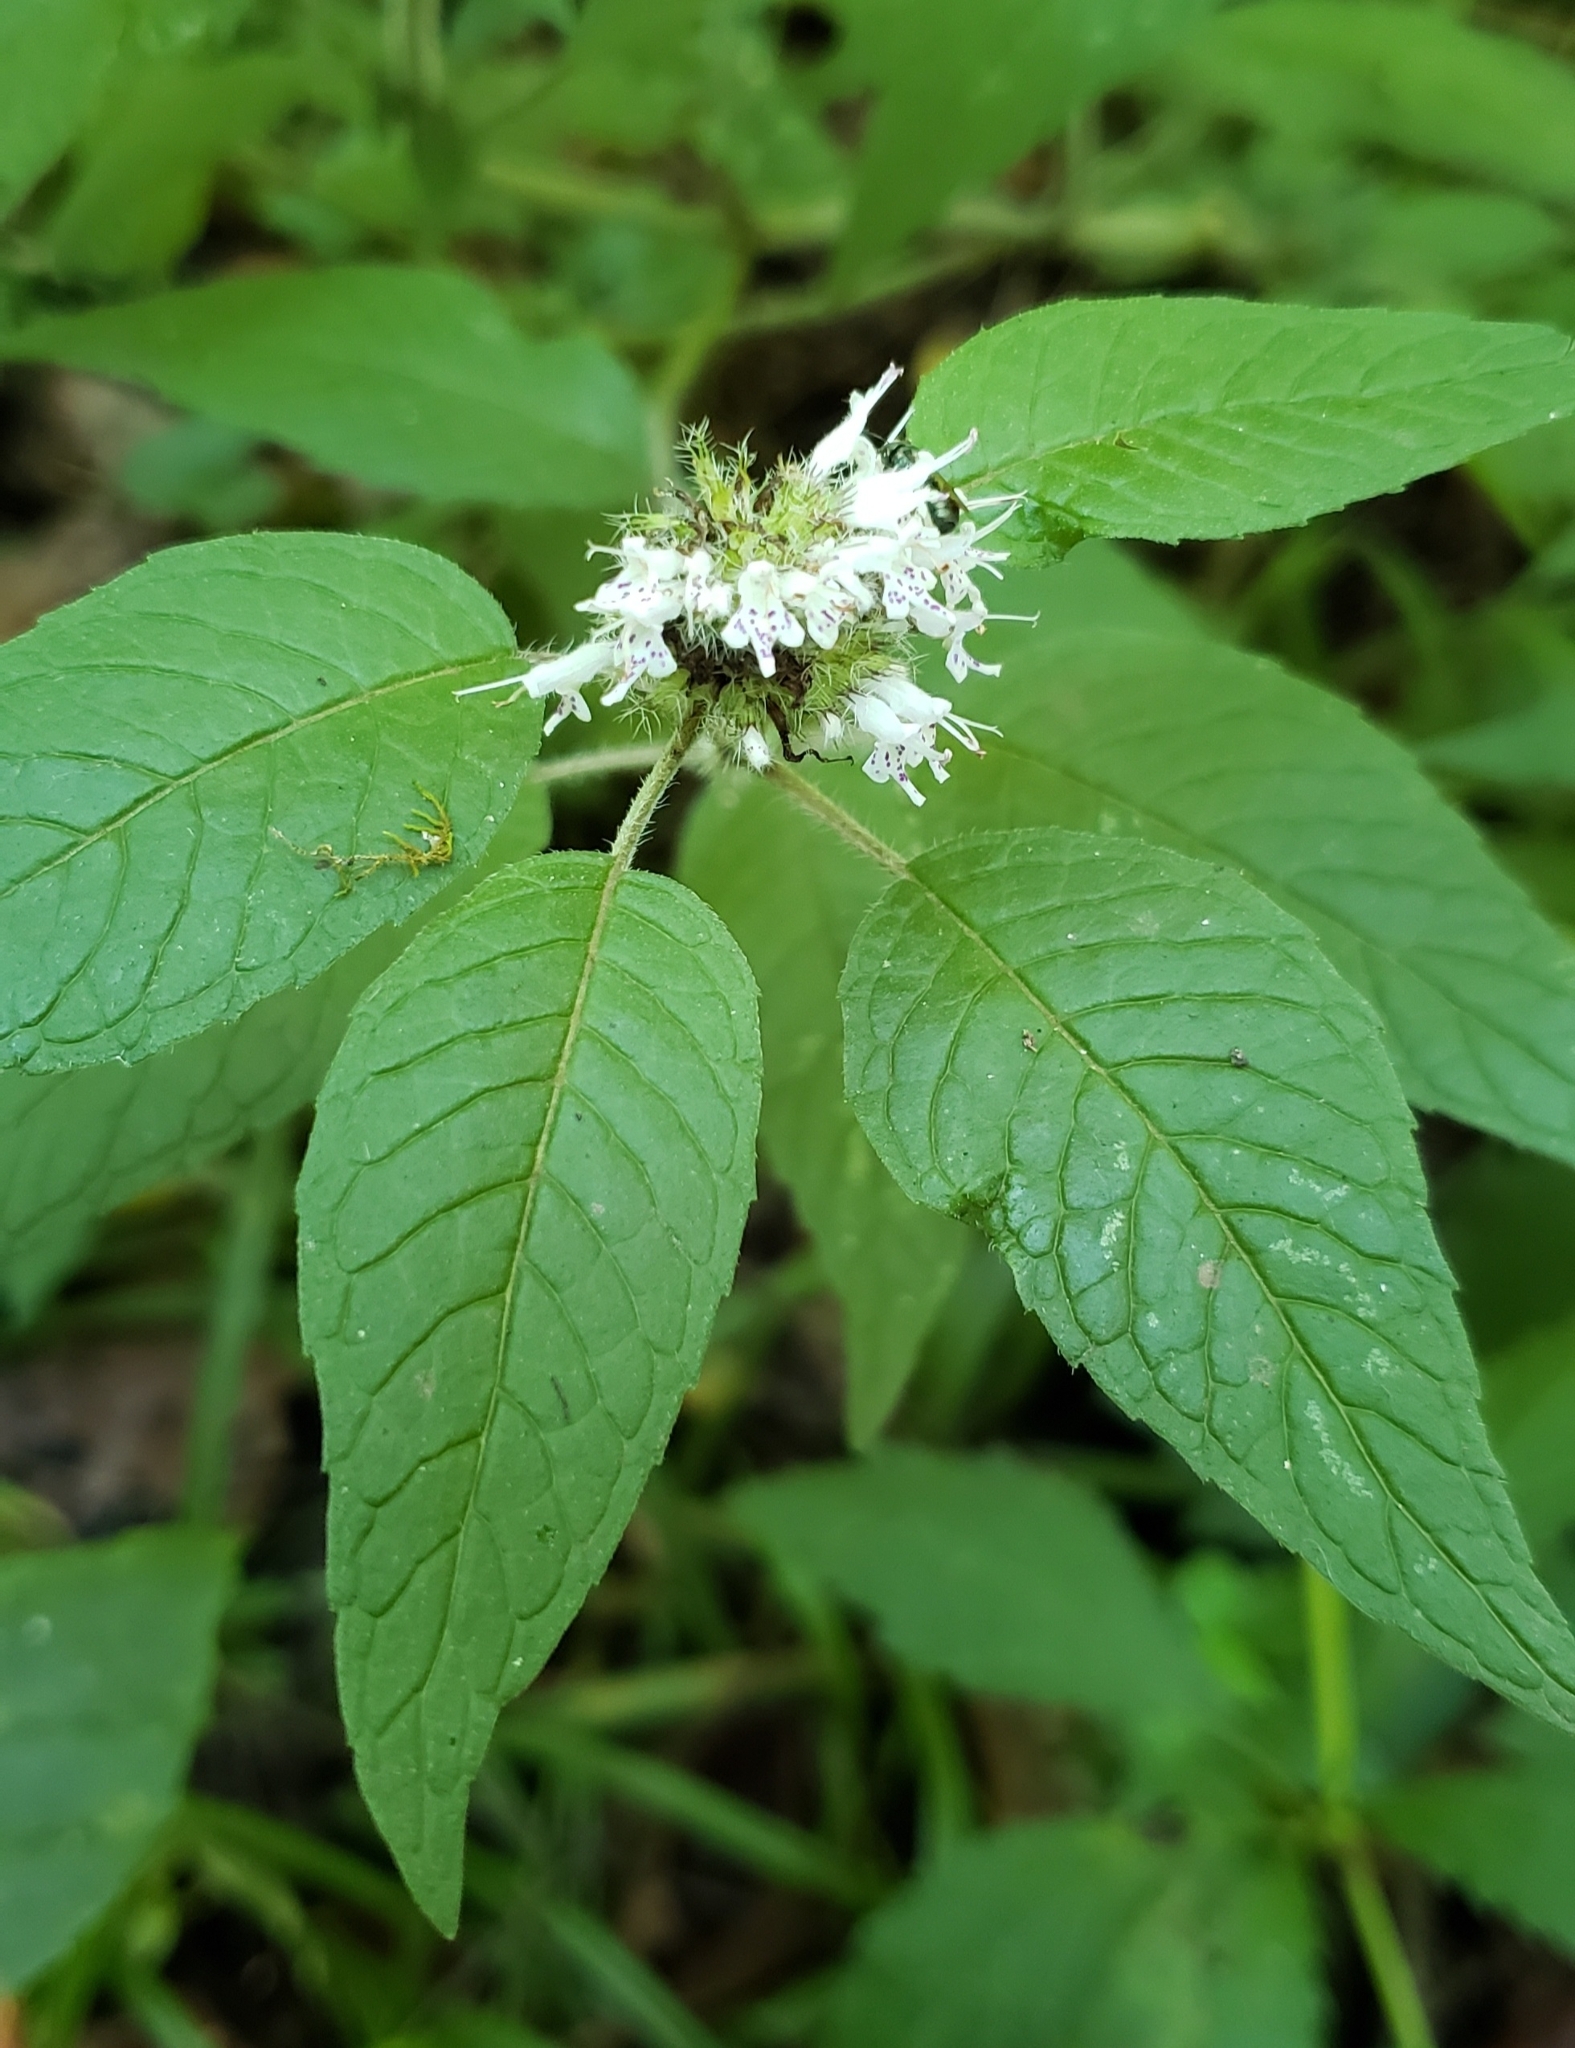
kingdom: Plantae
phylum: Tracheophyta
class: Magnoliopsida
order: Lamiales
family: Lamiaceae
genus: Blephilia
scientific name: Blephilia hirsuta
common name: Hairy blephilia
